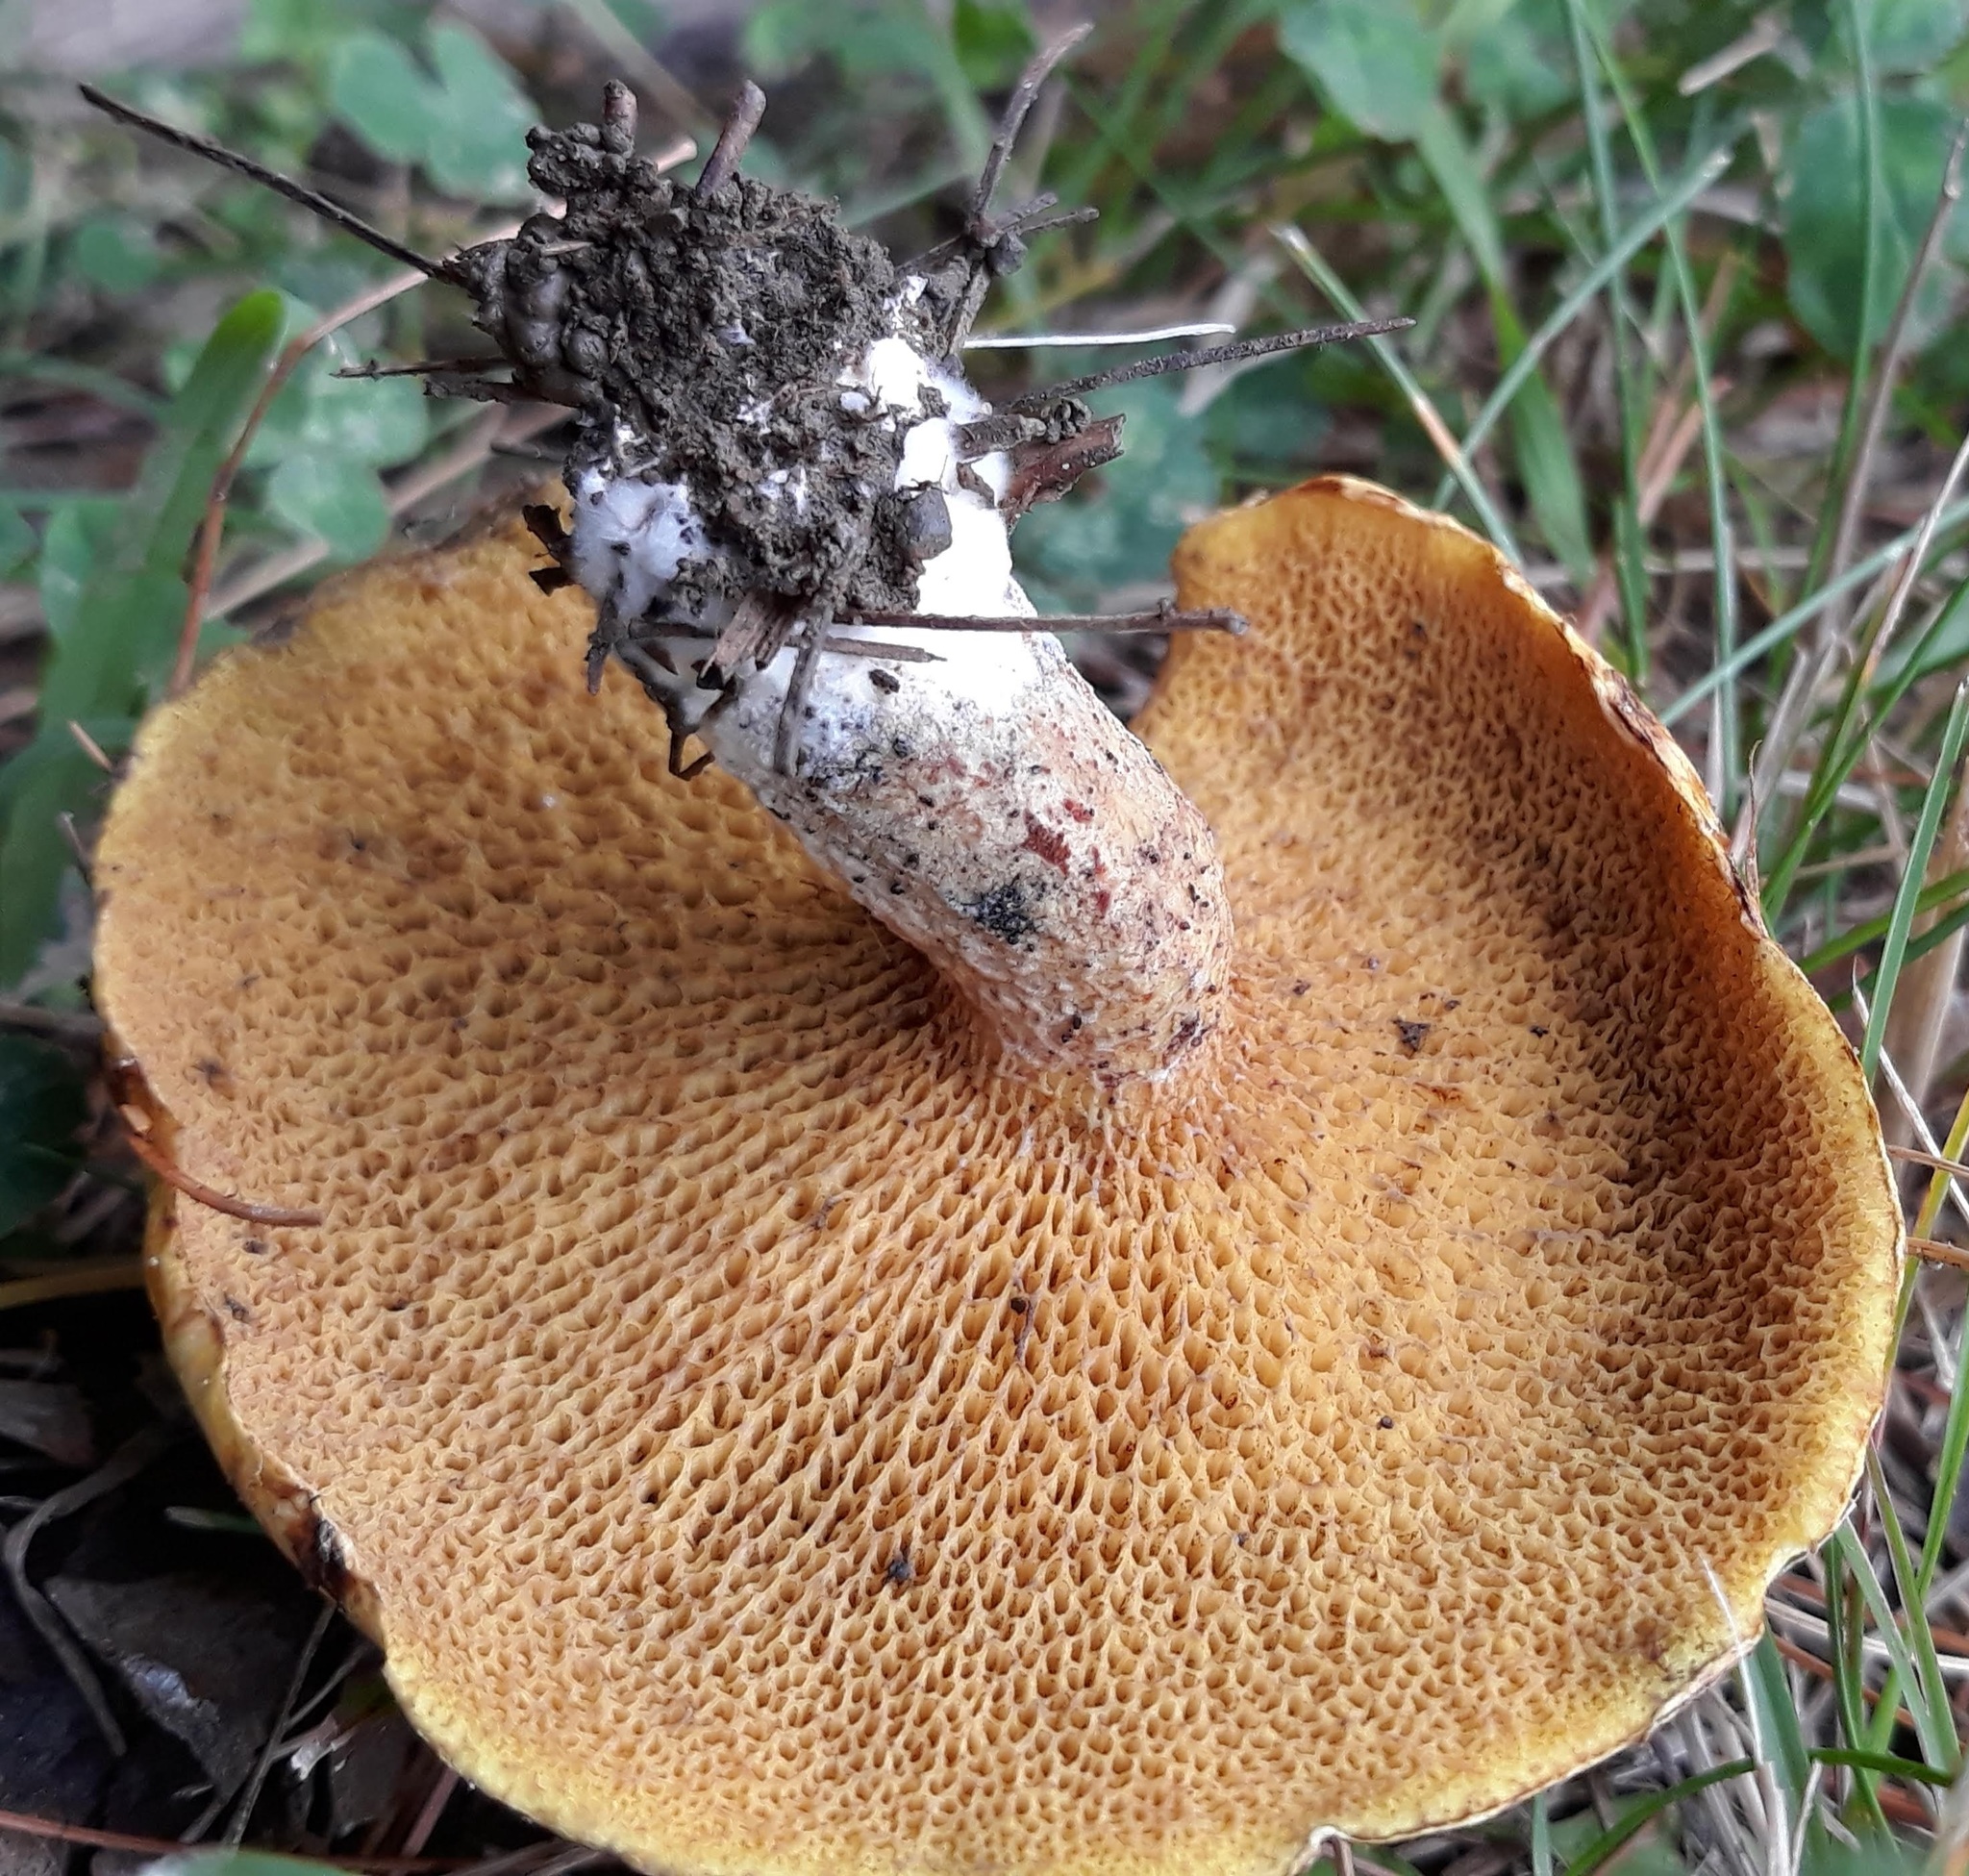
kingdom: Fungi
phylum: Basidiomycota
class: Agaricomycetes
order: Boletales
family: Suillaceae
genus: Suillus
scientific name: Suillus americanus
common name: Chicken fat mushroom
